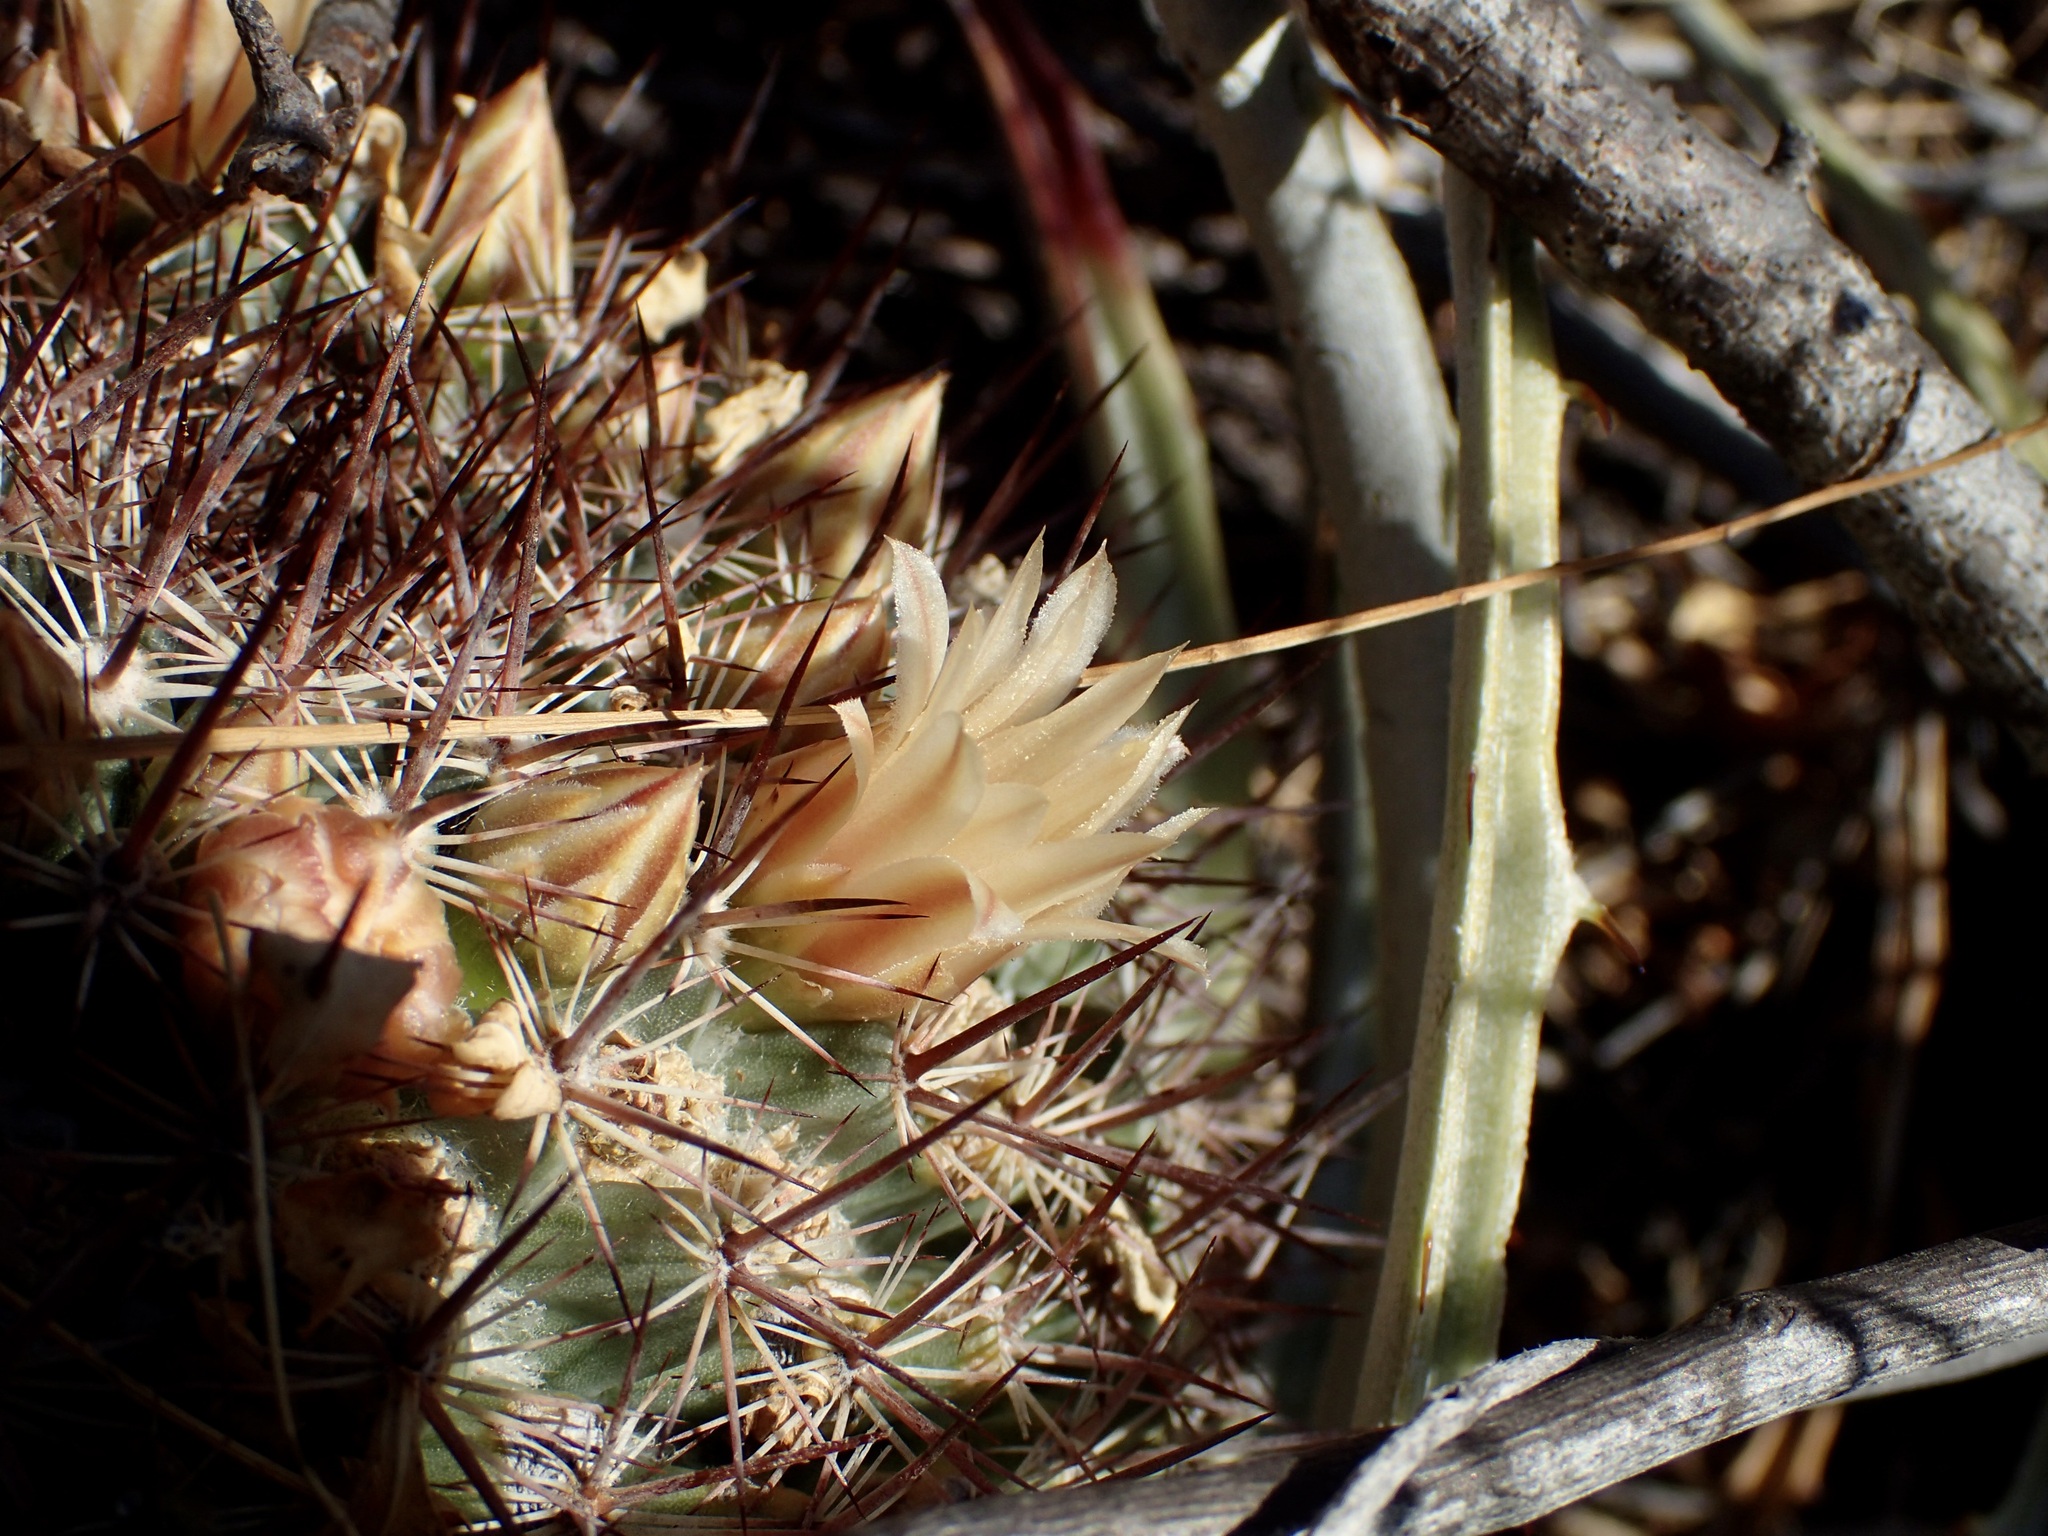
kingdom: Plantae
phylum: Tracheophyta
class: Magnoliopsida
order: Caryophyllales
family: Cactaceae
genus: Mammillaria
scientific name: Mammillaria johnstonii
